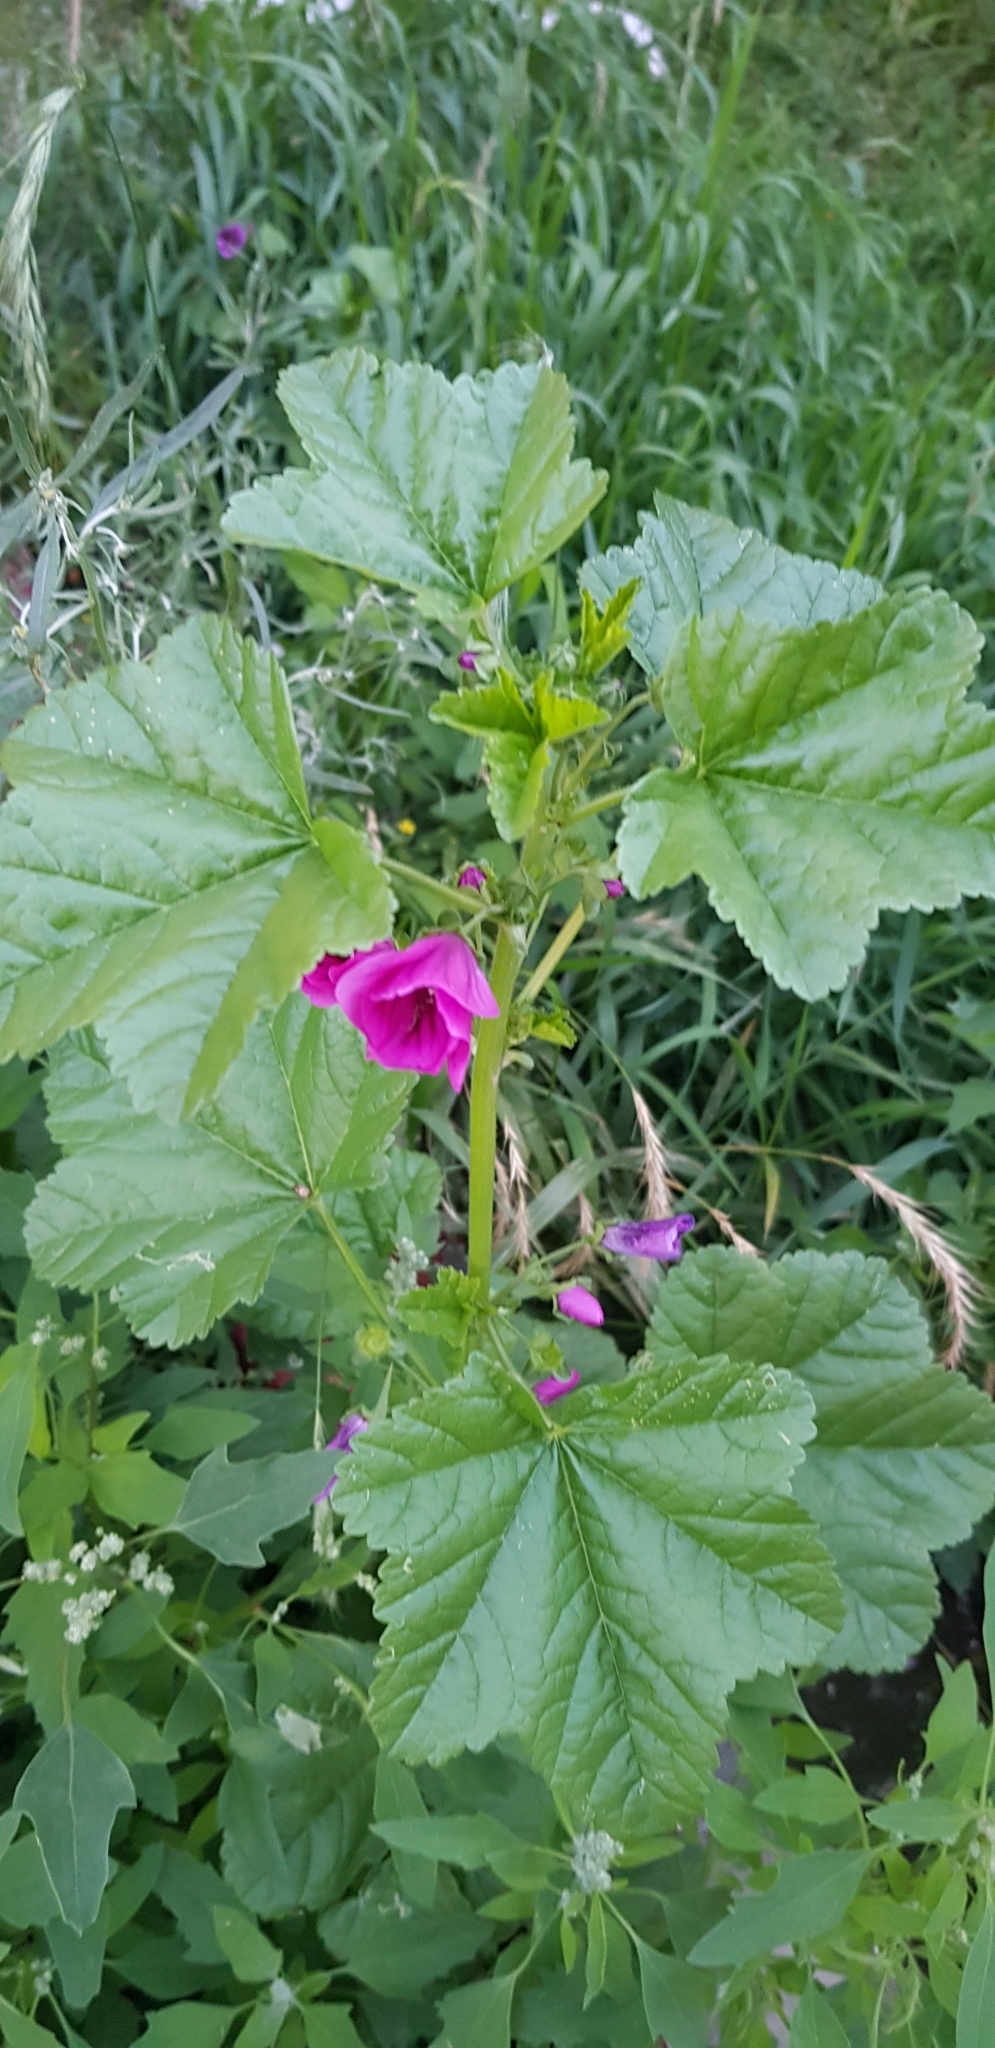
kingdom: Plantae
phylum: Tracheophyta
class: Magnoliopsida
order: Malvales
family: Malvaceae
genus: Malva
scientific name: Malva sylvestris
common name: Common mallow
